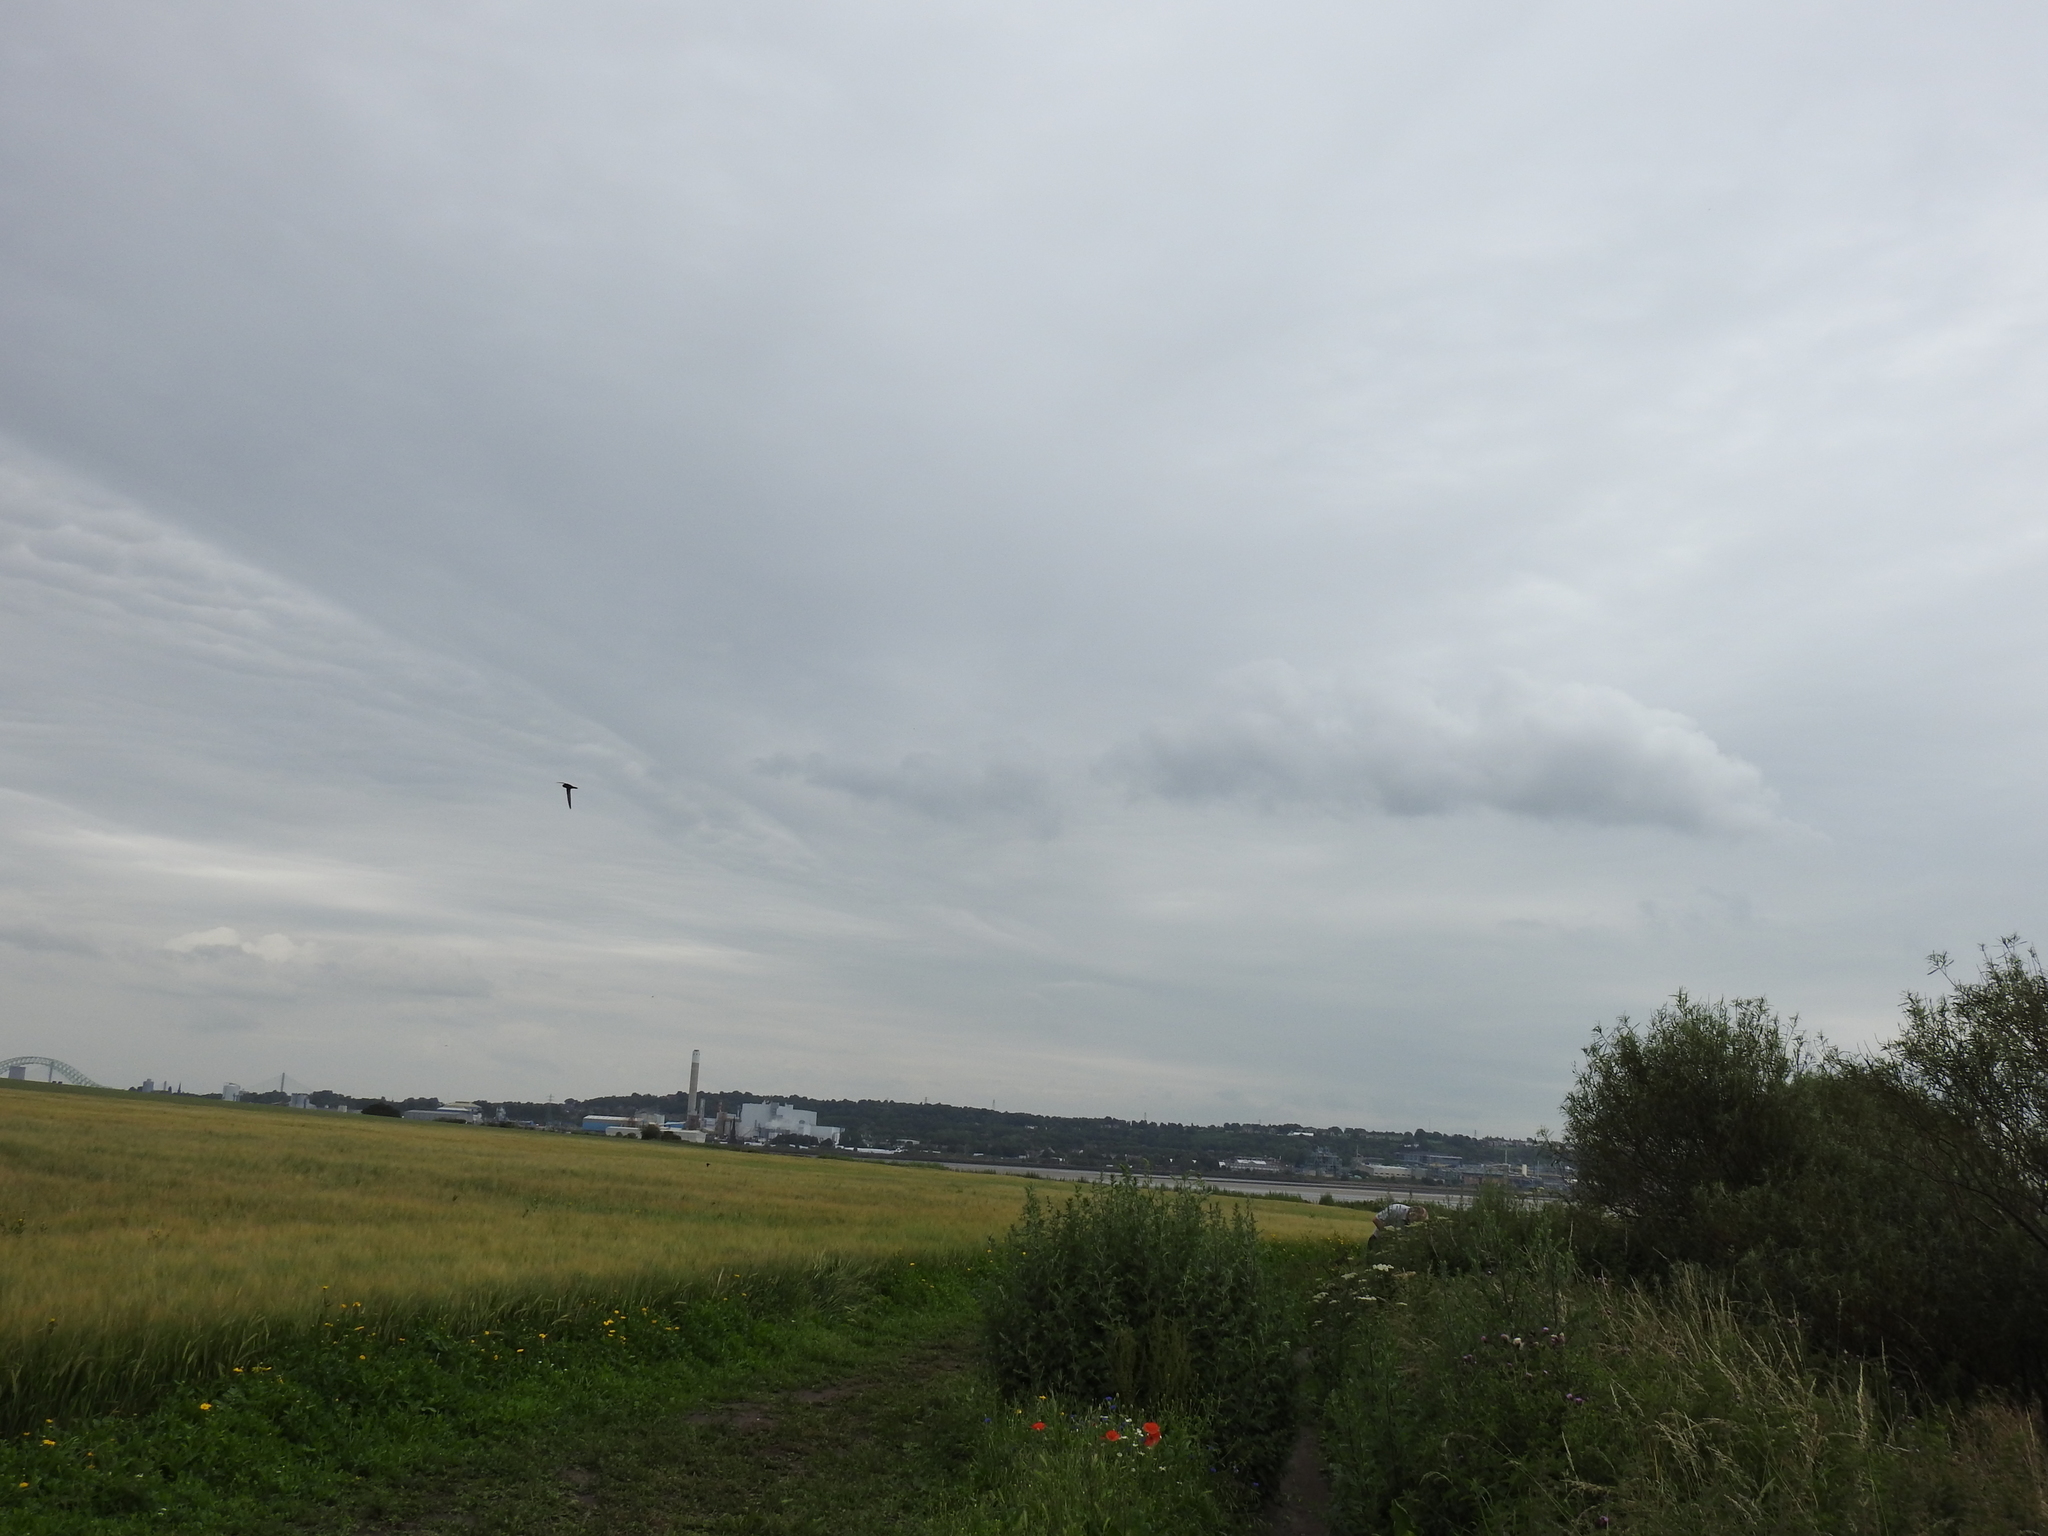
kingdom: Animalia
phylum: Chordata
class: Aves
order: Apodiformes
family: Apodidae
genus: Apus
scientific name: Apus apus
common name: Common swift
